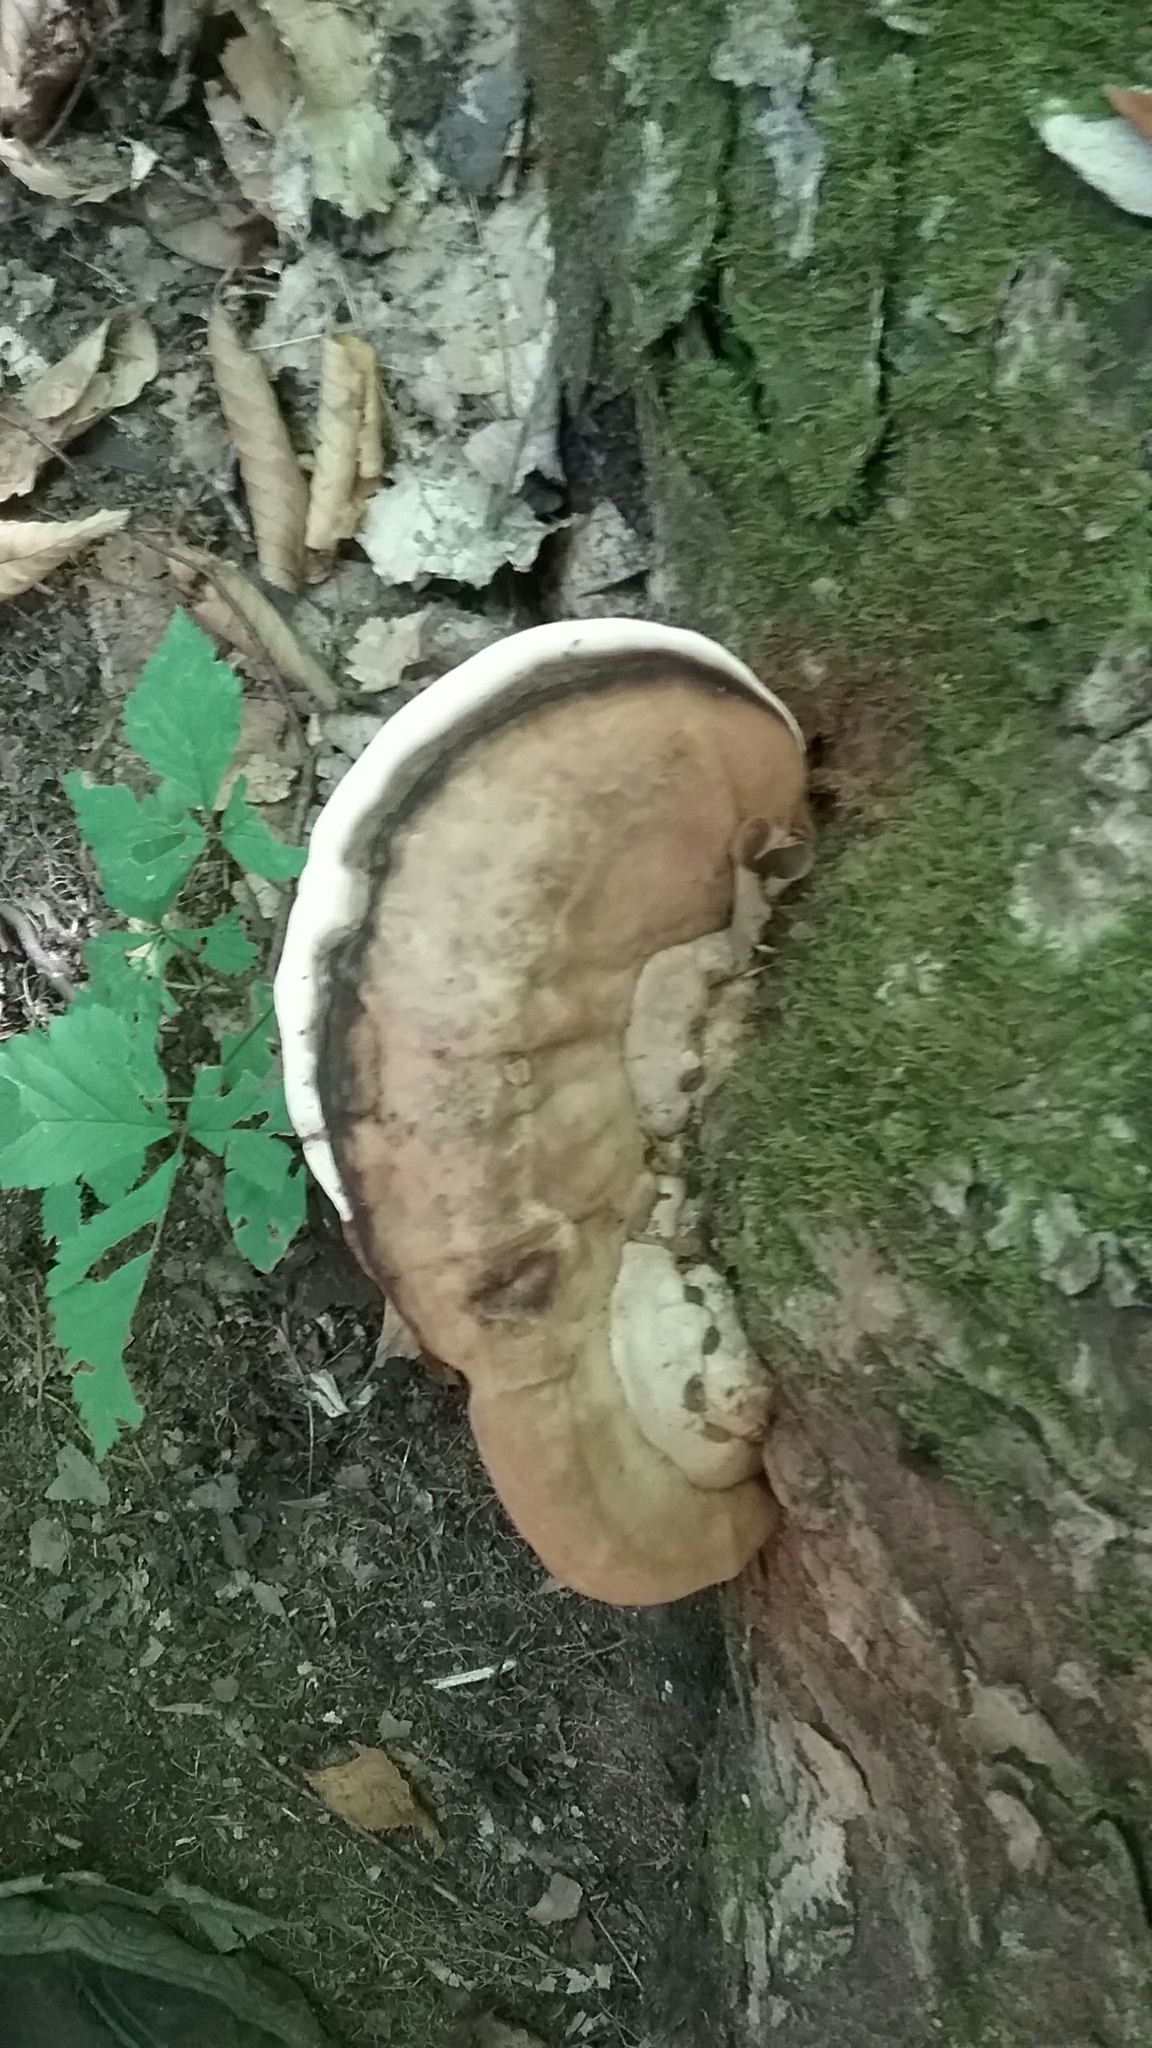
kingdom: Fungi
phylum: Basidiomycota
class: Agaricomycetes
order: Polyporales
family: Polyporaceae
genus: Ganoderma
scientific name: Ganoderma applanatum
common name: Artist's bracket
